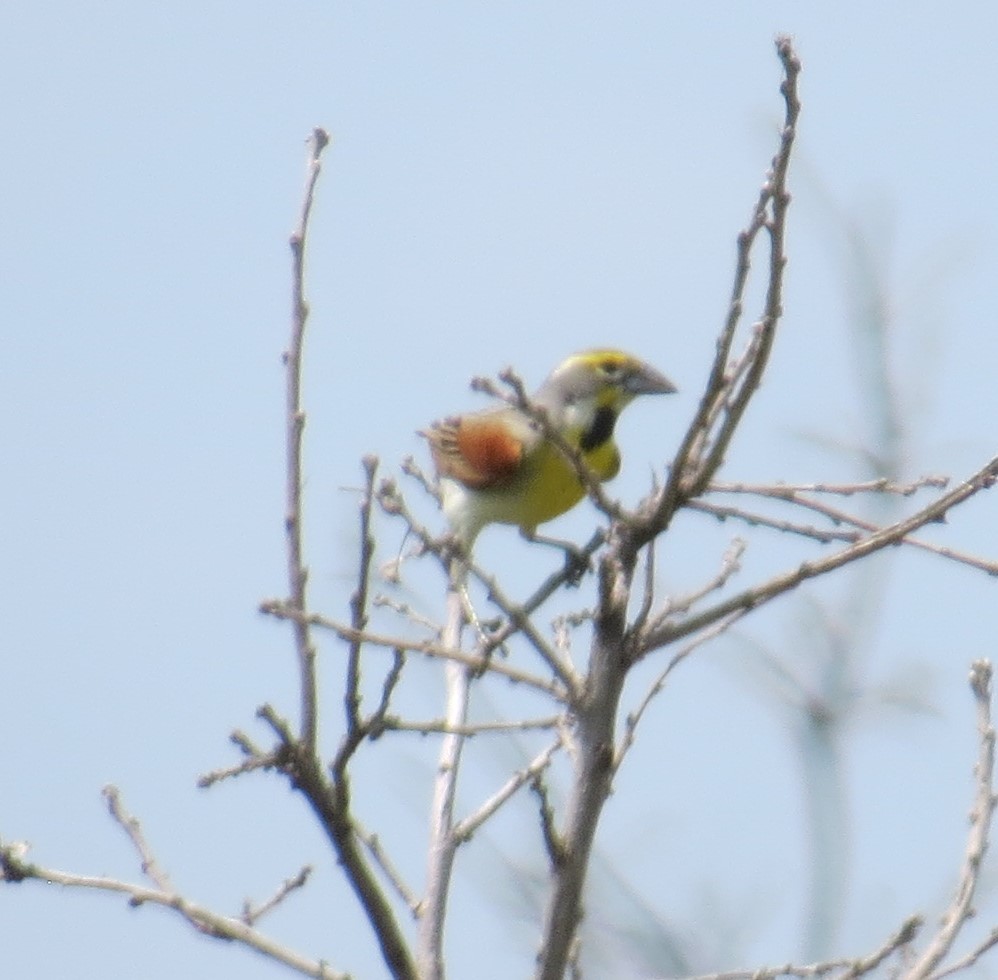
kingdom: Animalia
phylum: Chordata
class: Aves
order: Passeriformes
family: Cardinalidae
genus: Spiza
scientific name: Spiza americana
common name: Dickcissel
